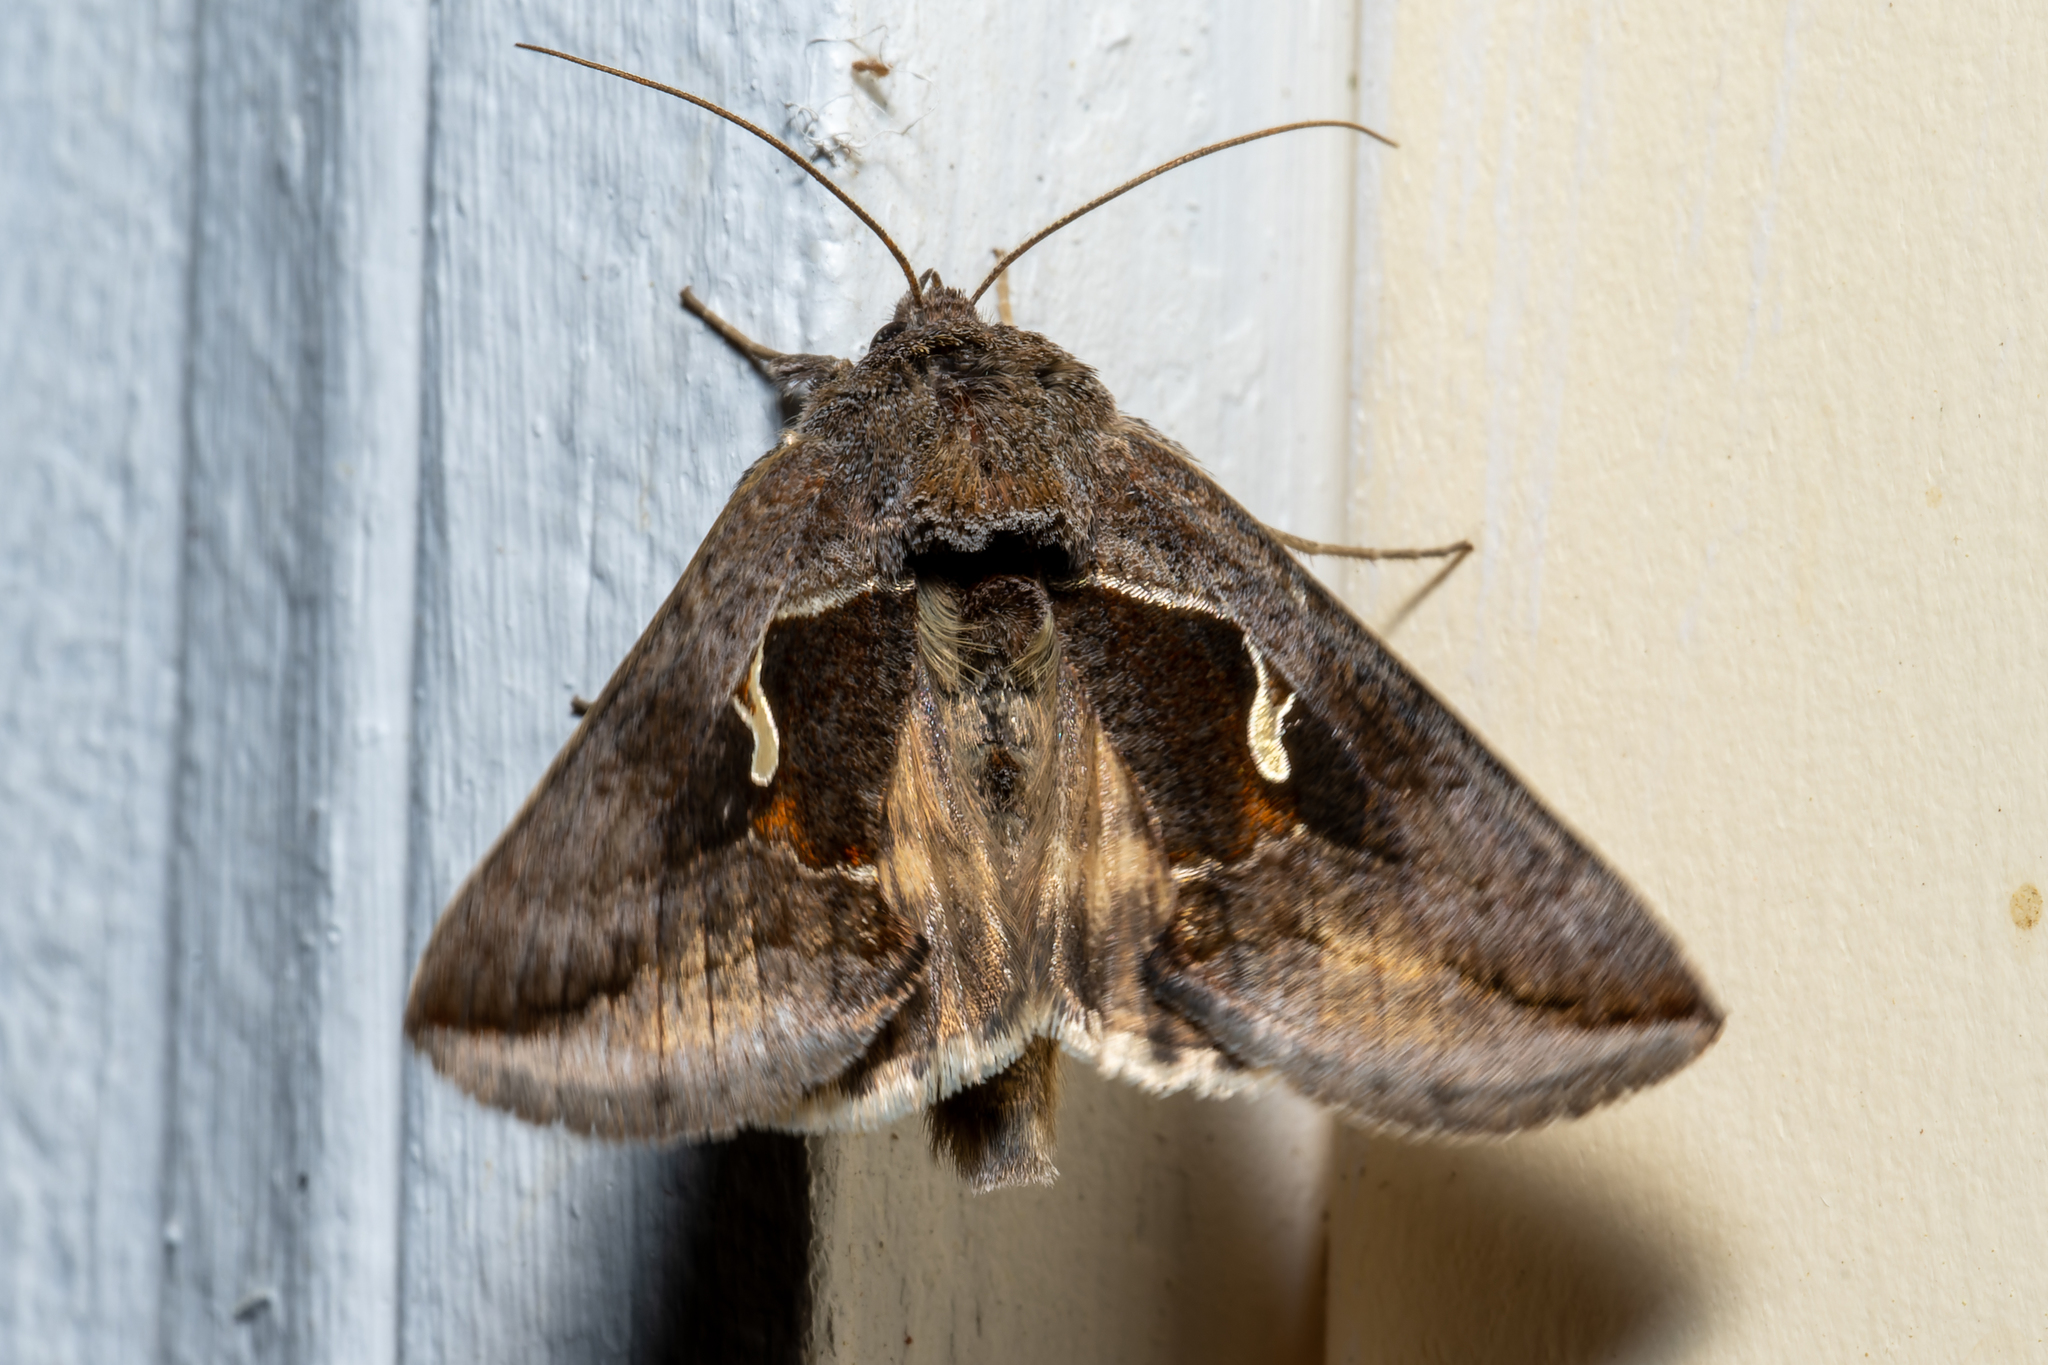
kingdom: Animalia
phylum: Arthropoda
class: Insecta
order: Lepidoptera
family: Noctuidae
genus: Anagrapha
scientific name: Anagrapha falcifera
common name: Celery looper
